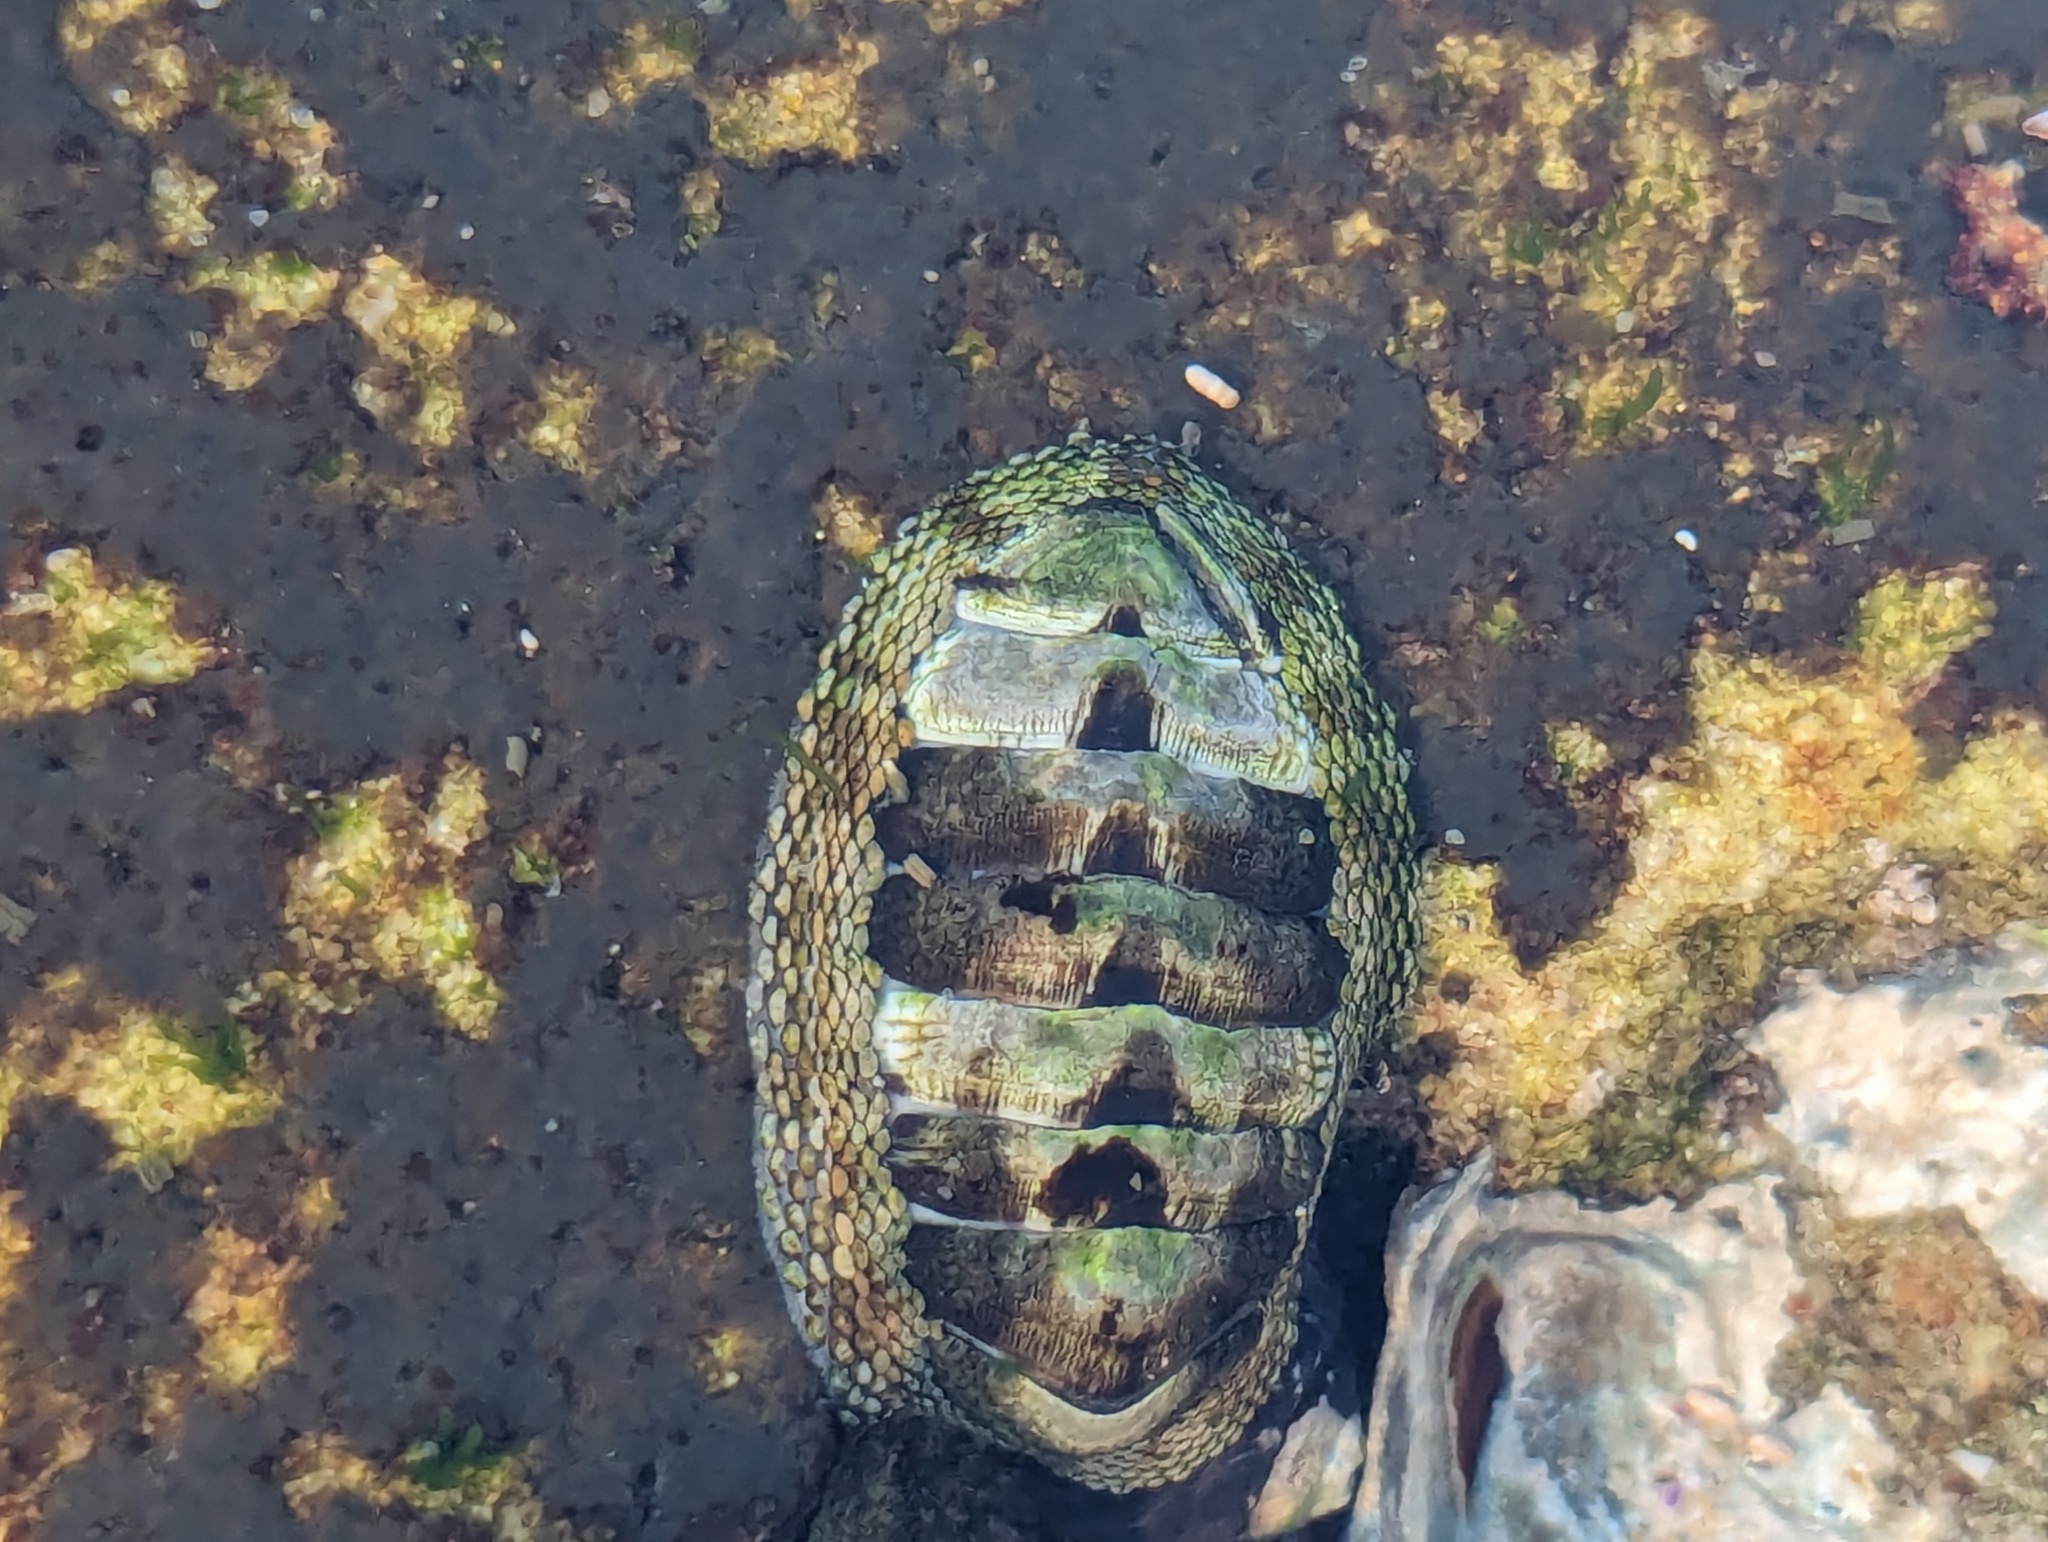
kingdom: Animalia
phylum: Mollusca
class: Polyplacophora
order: Chitonida
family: Chitonidae
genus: Sypharochiton
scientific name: Sypharochiton pelliserpentis
